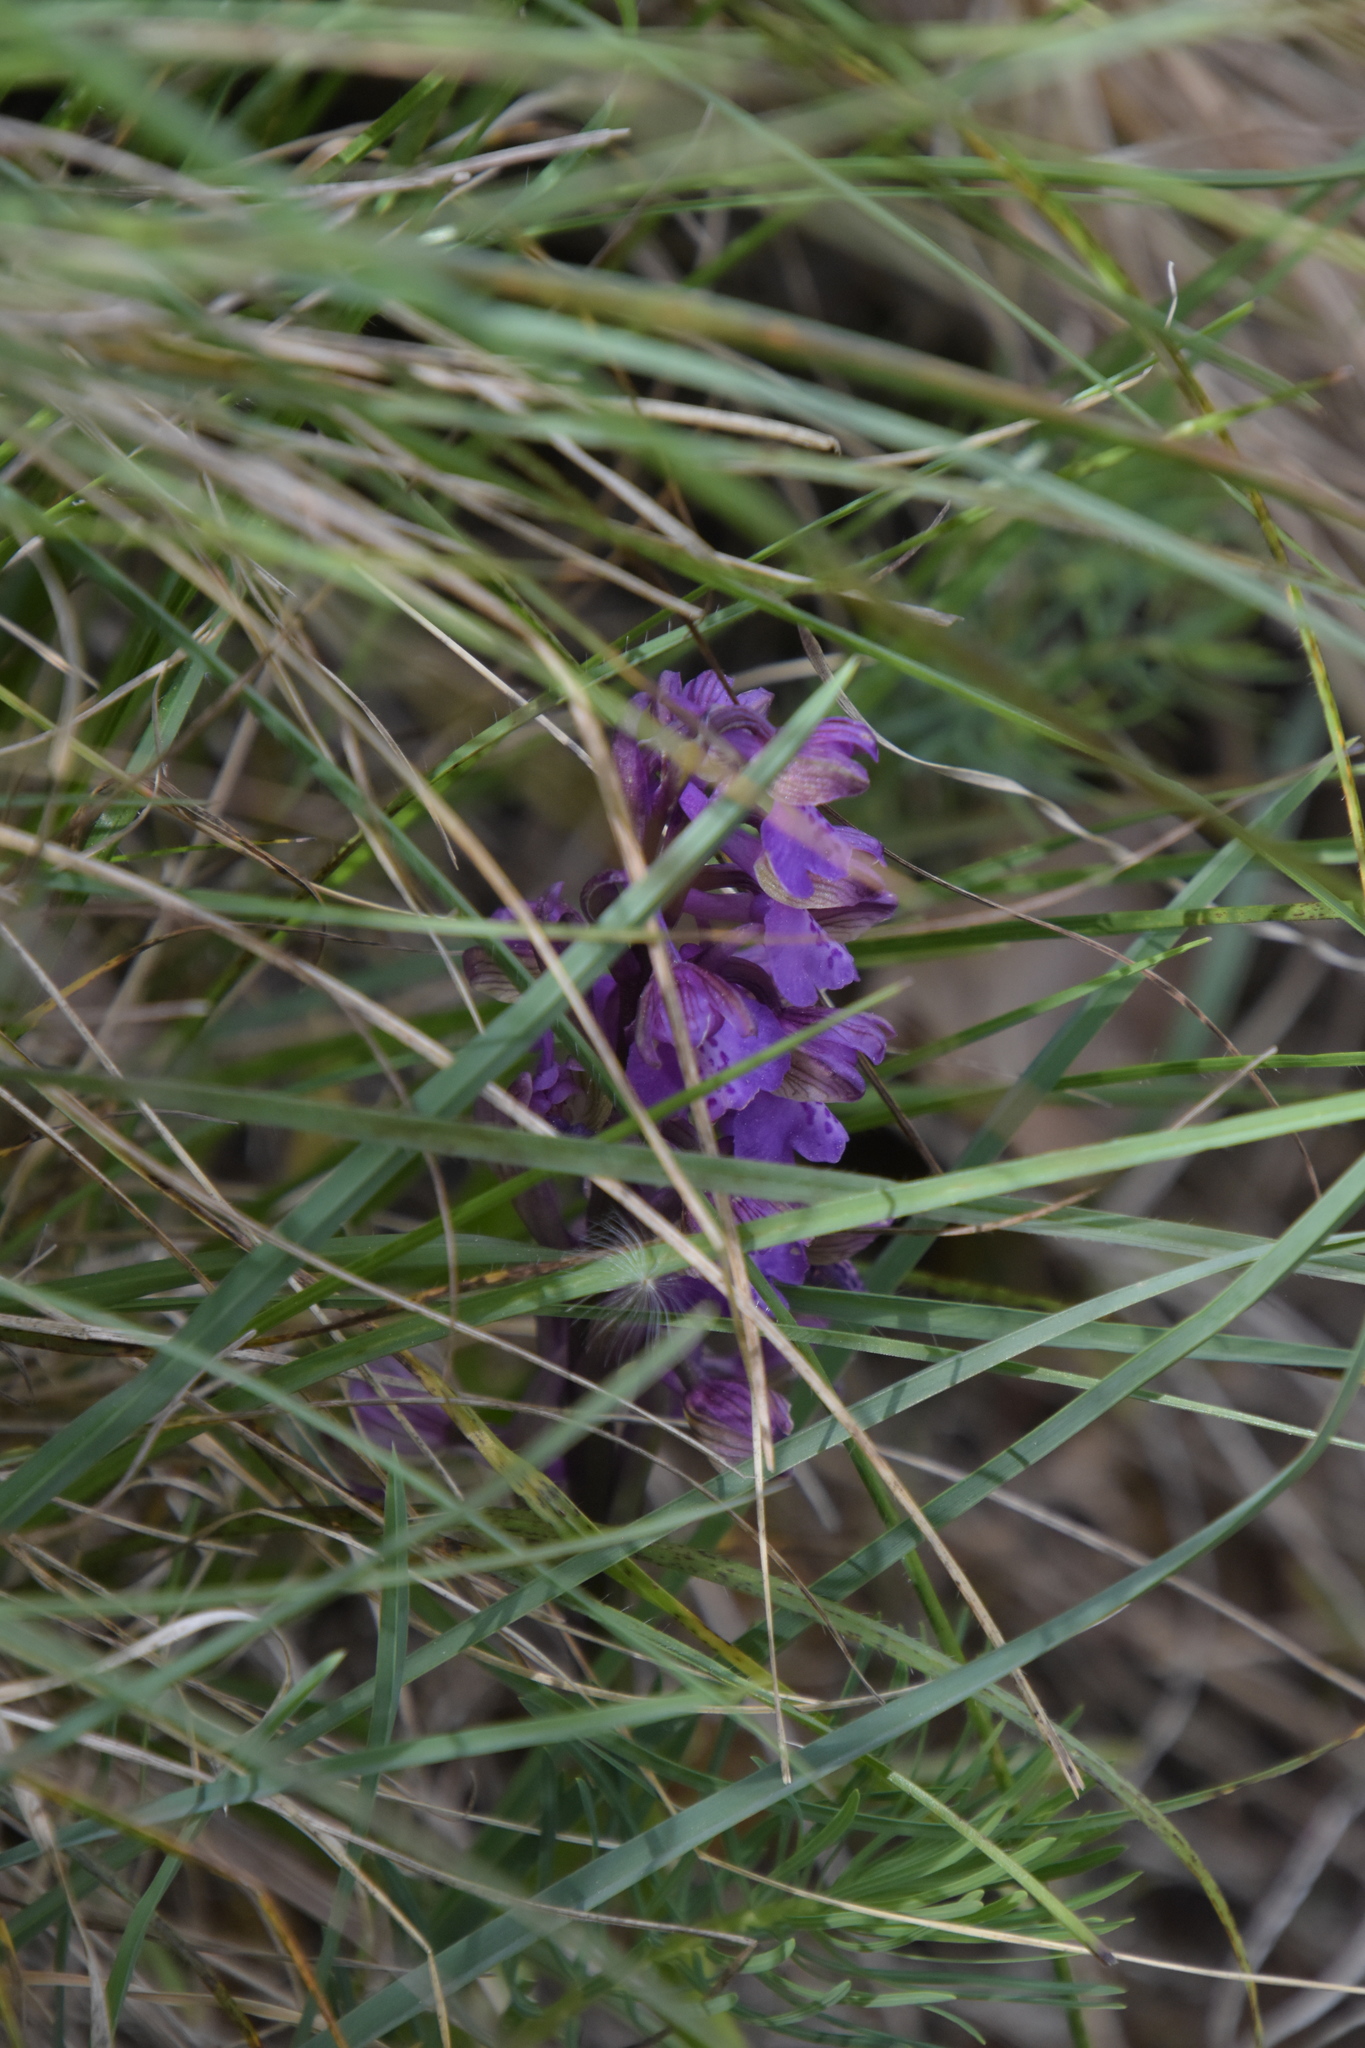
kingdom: Plantae
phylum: Tracheophyta
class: Liliopsida
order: Asparagales
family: Orchidaceae
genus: Anacamptis
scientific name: Anacamptis morio
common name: Green-winged orchid
